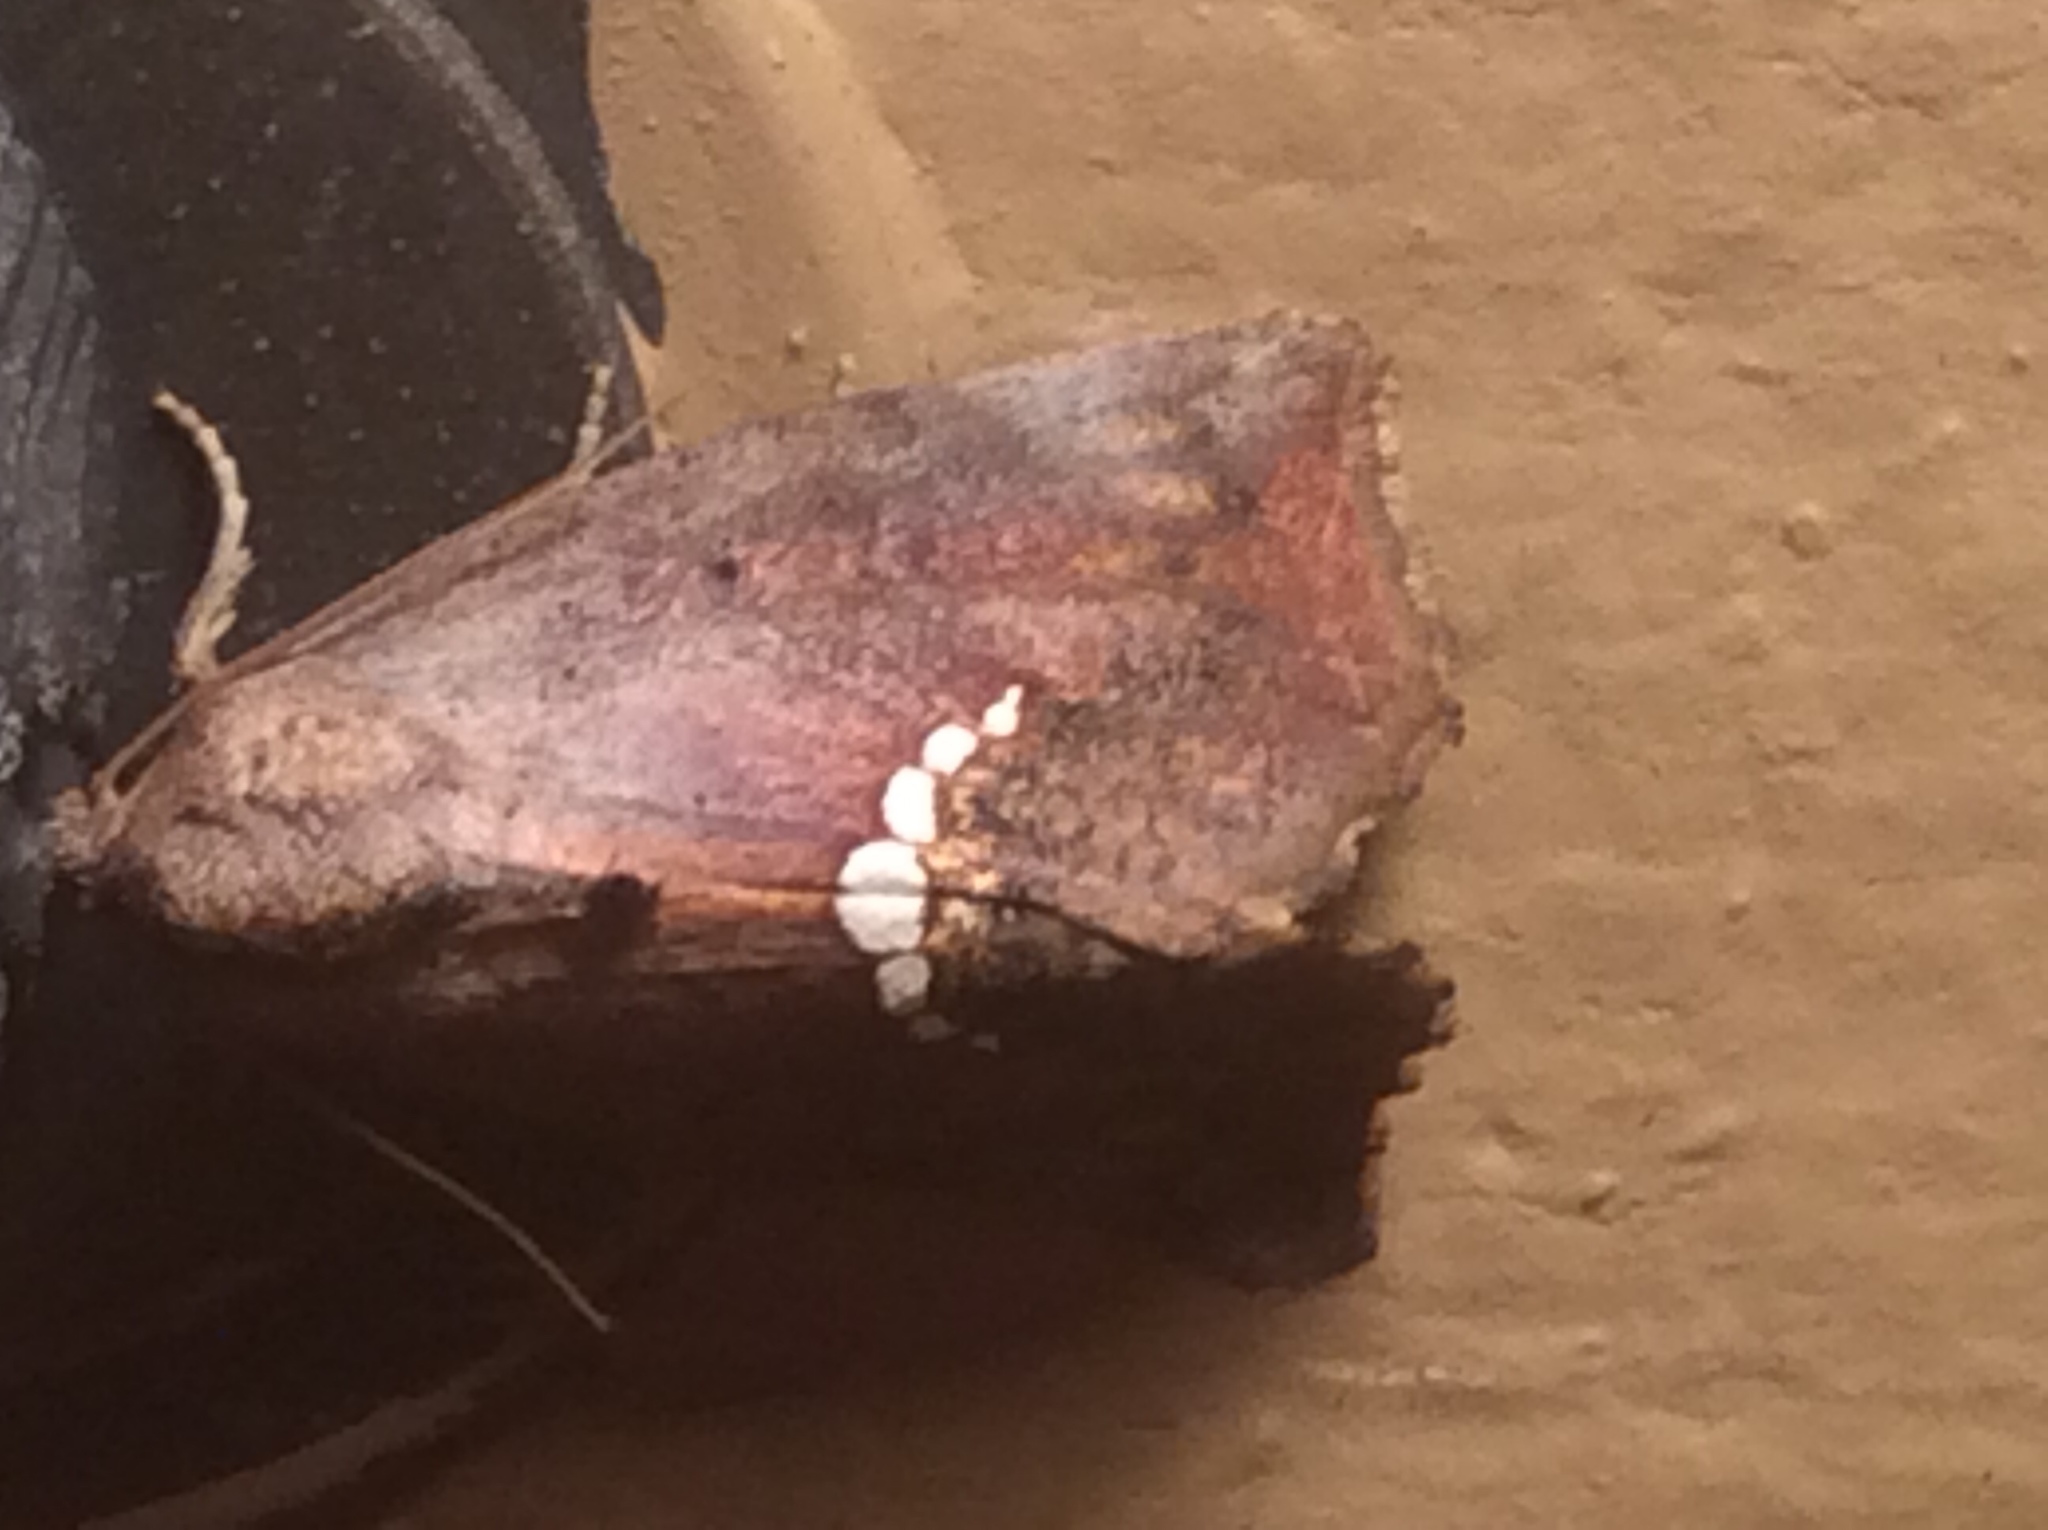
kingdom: Animalia
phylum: Arthropoda
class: Insecta
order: Lepidoptera
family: Erebidae
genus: Hypsoropha
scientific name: Hypsoropha hormos
